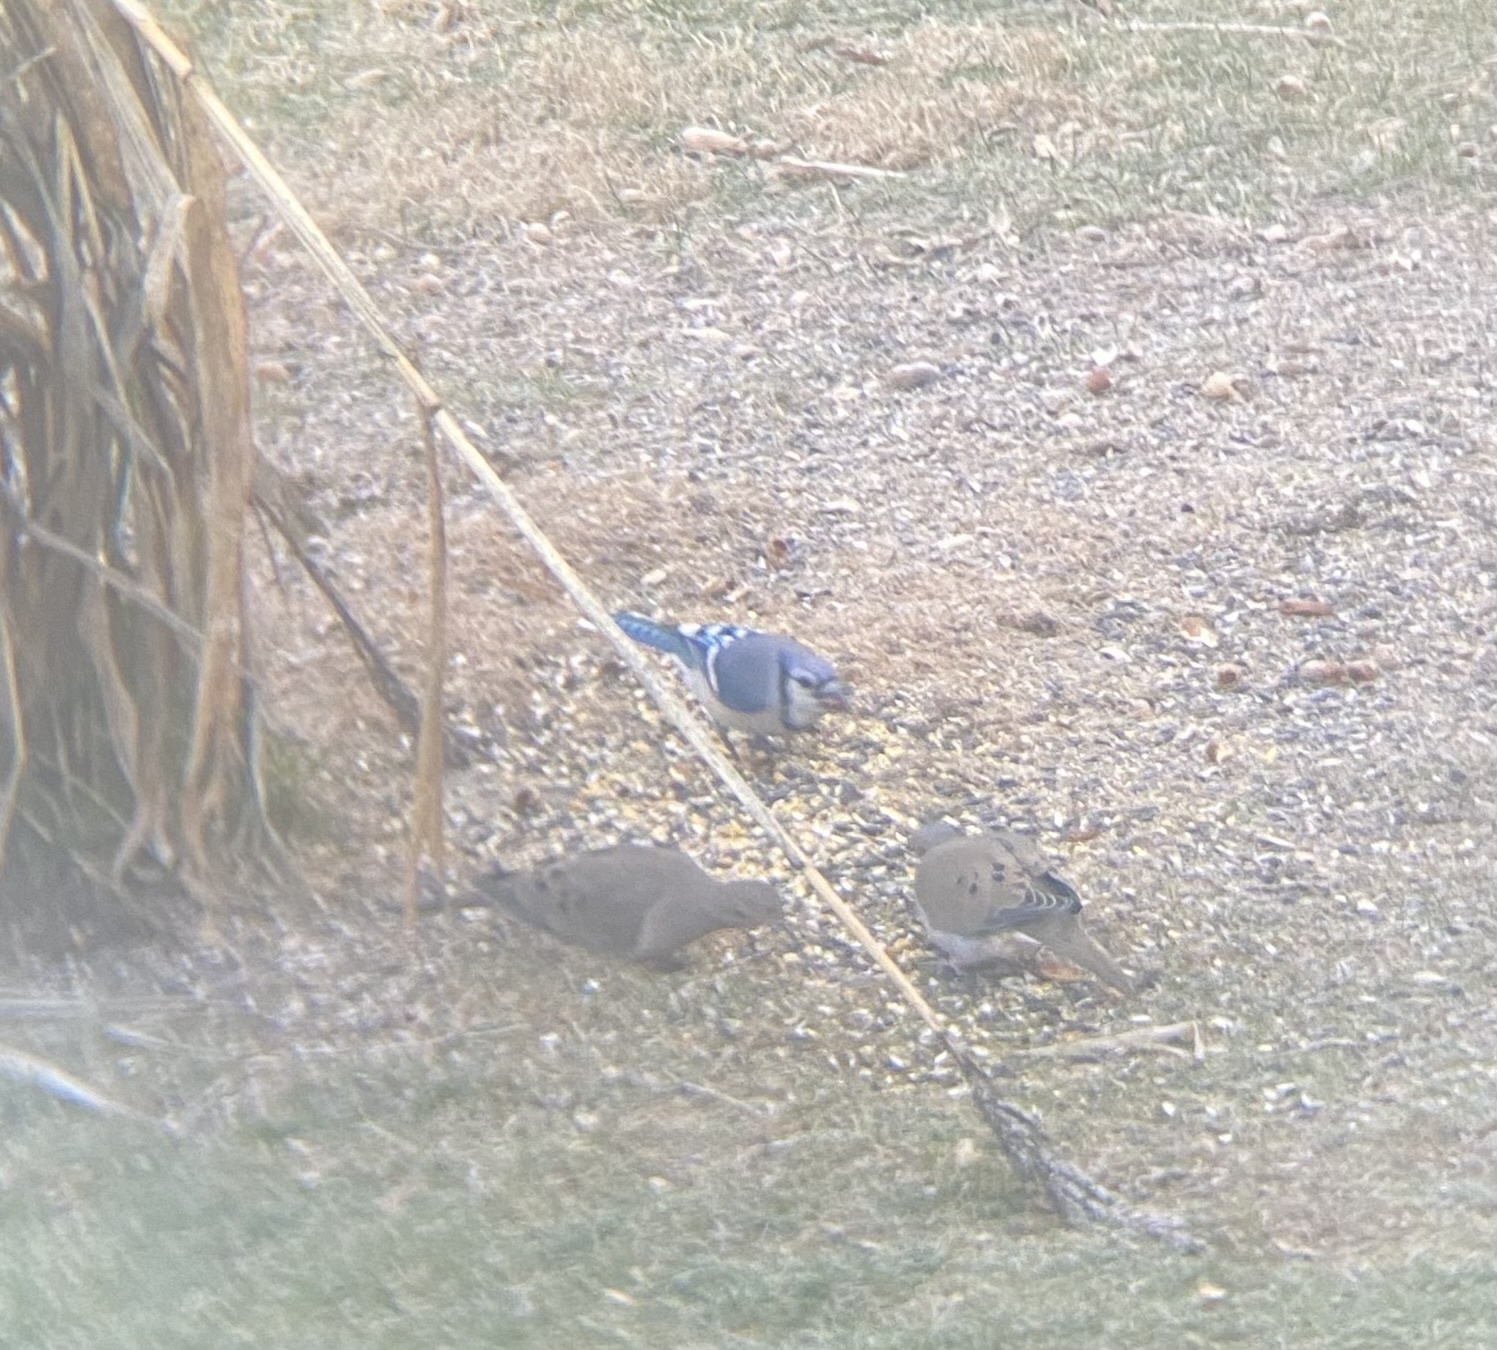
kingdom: Animalia
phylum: Chordata
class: Aves
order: Passeriformes
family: Corvidae
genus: Cyanocitta
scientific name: Cyanocitta cristata
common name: Blue jay
